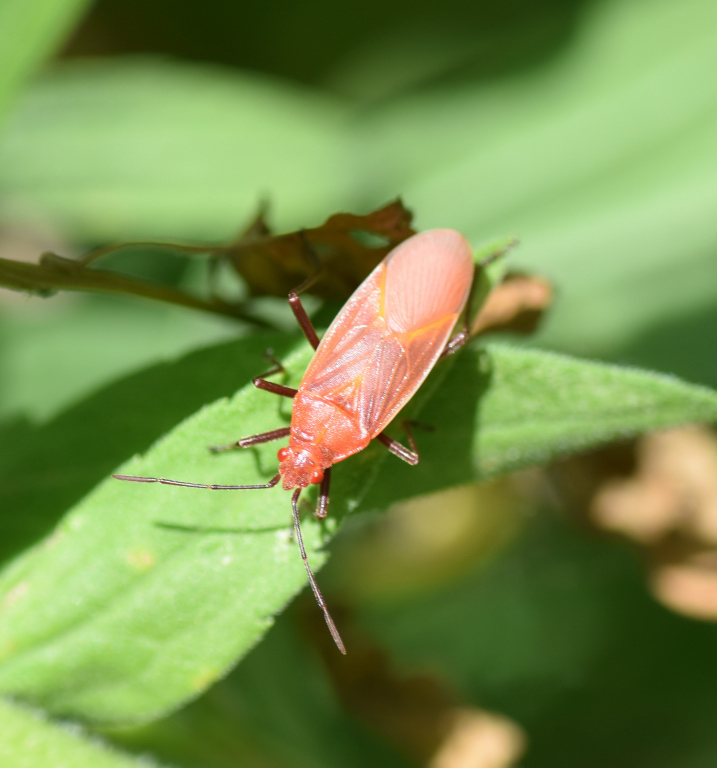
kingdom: Animalia
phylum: Arthropoda
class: Insecta
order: Hemiptera
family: Rhopalidae
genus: Boisea
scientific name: Boisea trivittata
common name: Boxelder bug
